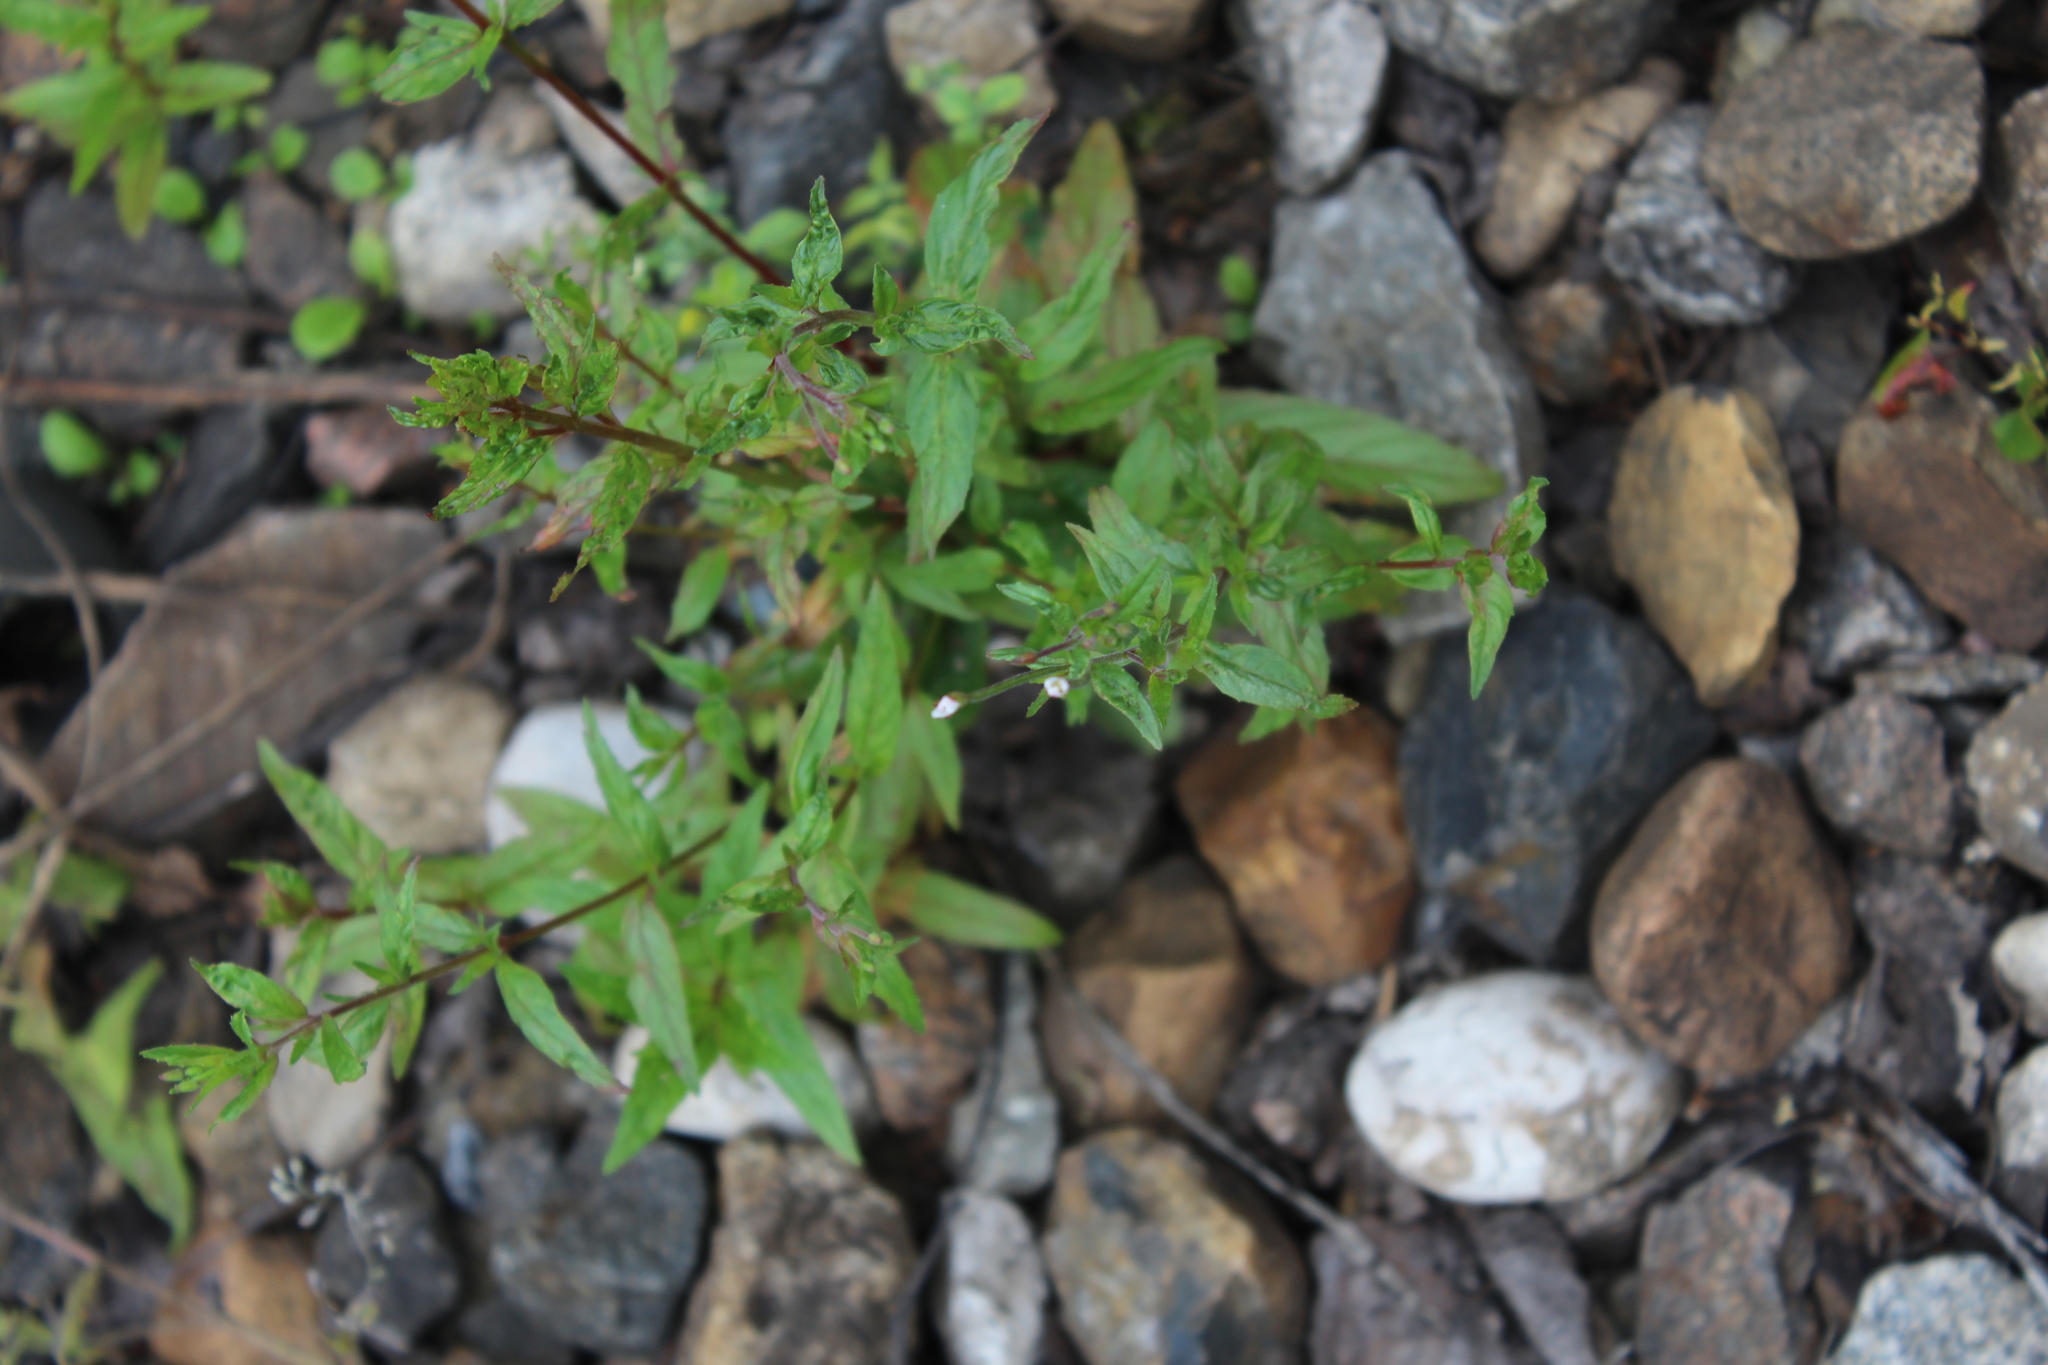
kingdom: Plantae
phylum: Tracheophyta
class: Magnoliopsida
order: Myrtales
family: Onagraceae
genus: Epilobium
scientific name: Epilobium pseudorubescens
